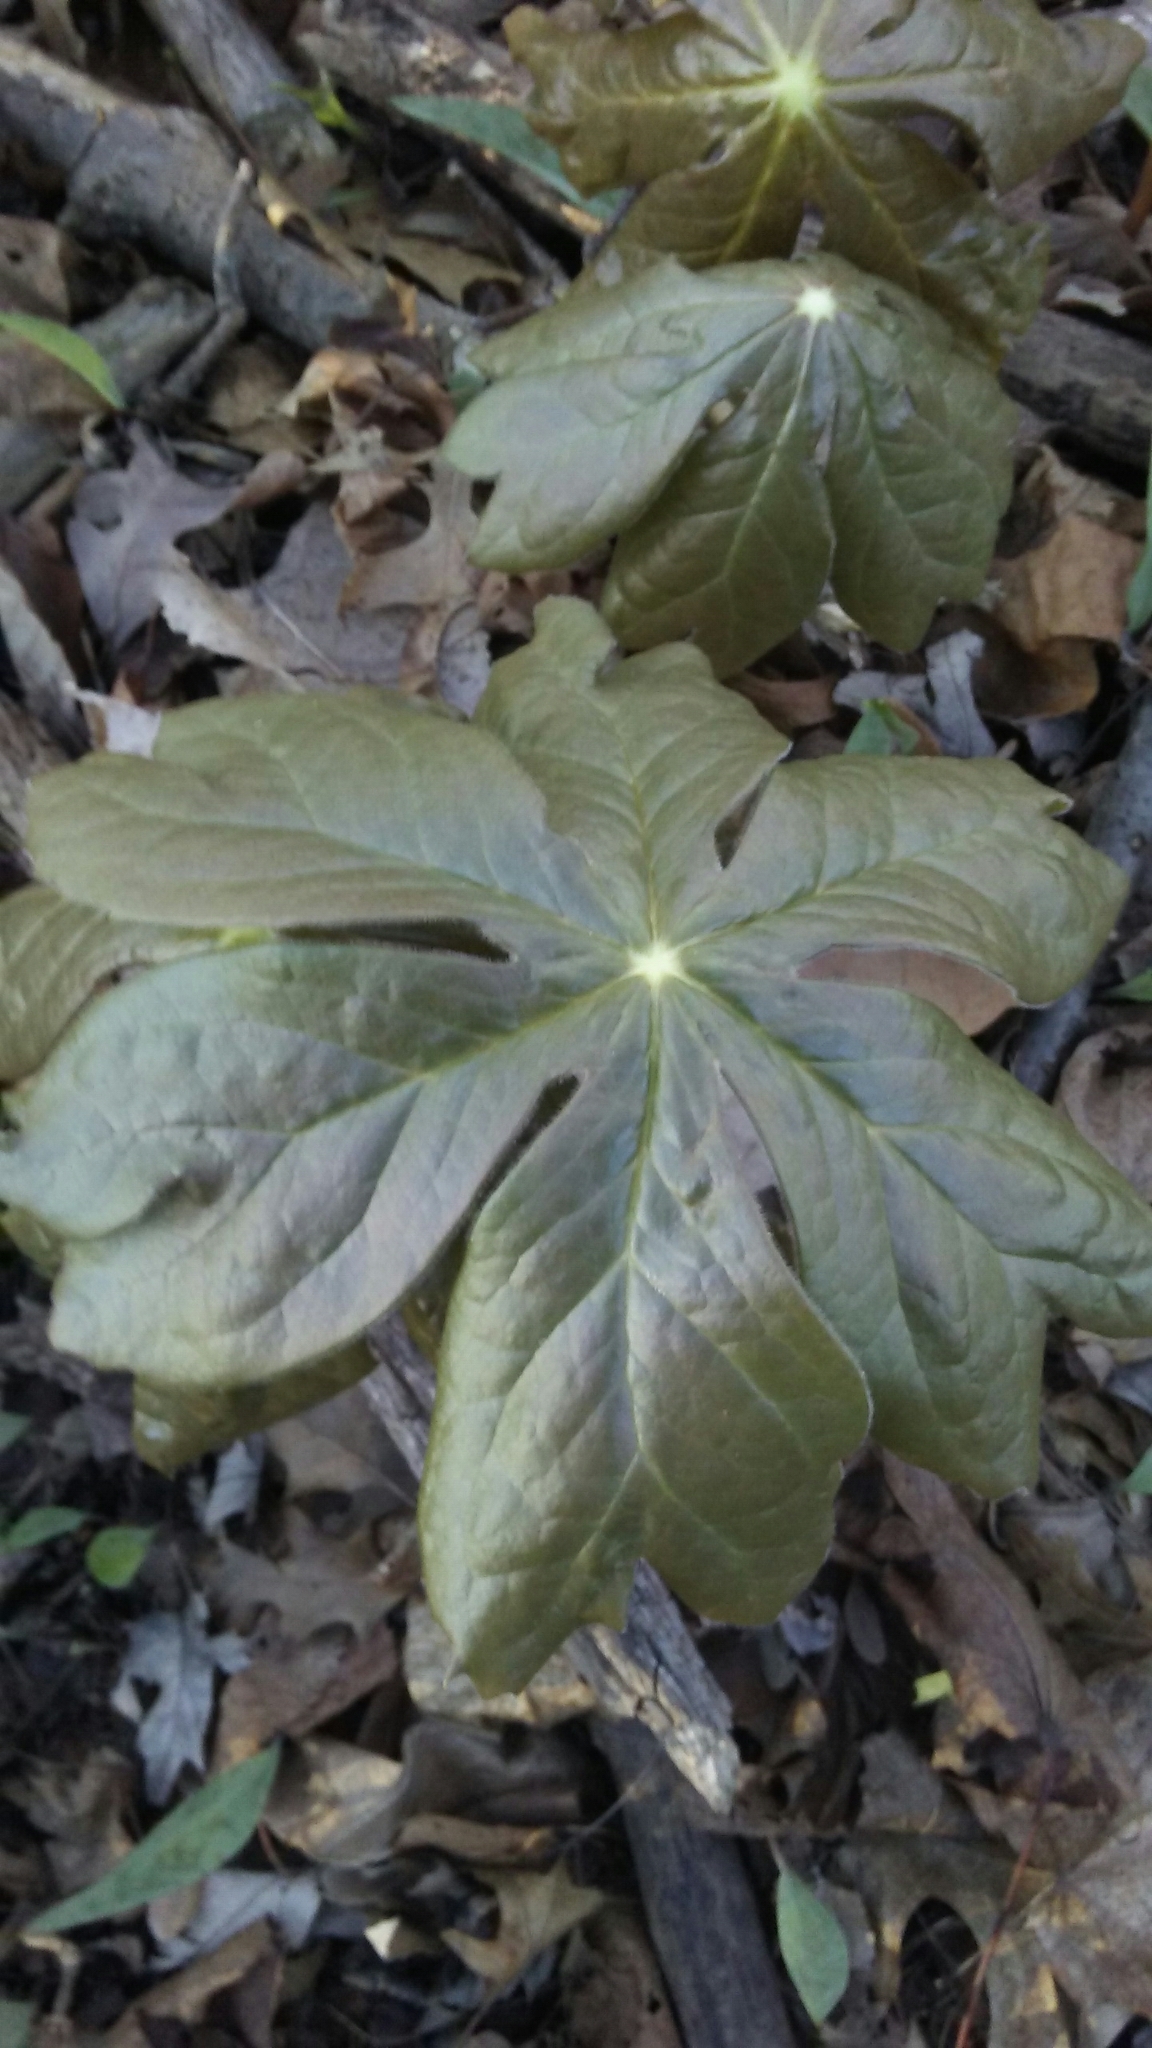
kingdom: Plantae
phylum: Tracheophyta
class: Magnoliopsida
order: Ranunculales
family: Berberidaceae
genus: Podophyllum
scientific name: Podophyllum peltatum
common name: Wild mandrake
